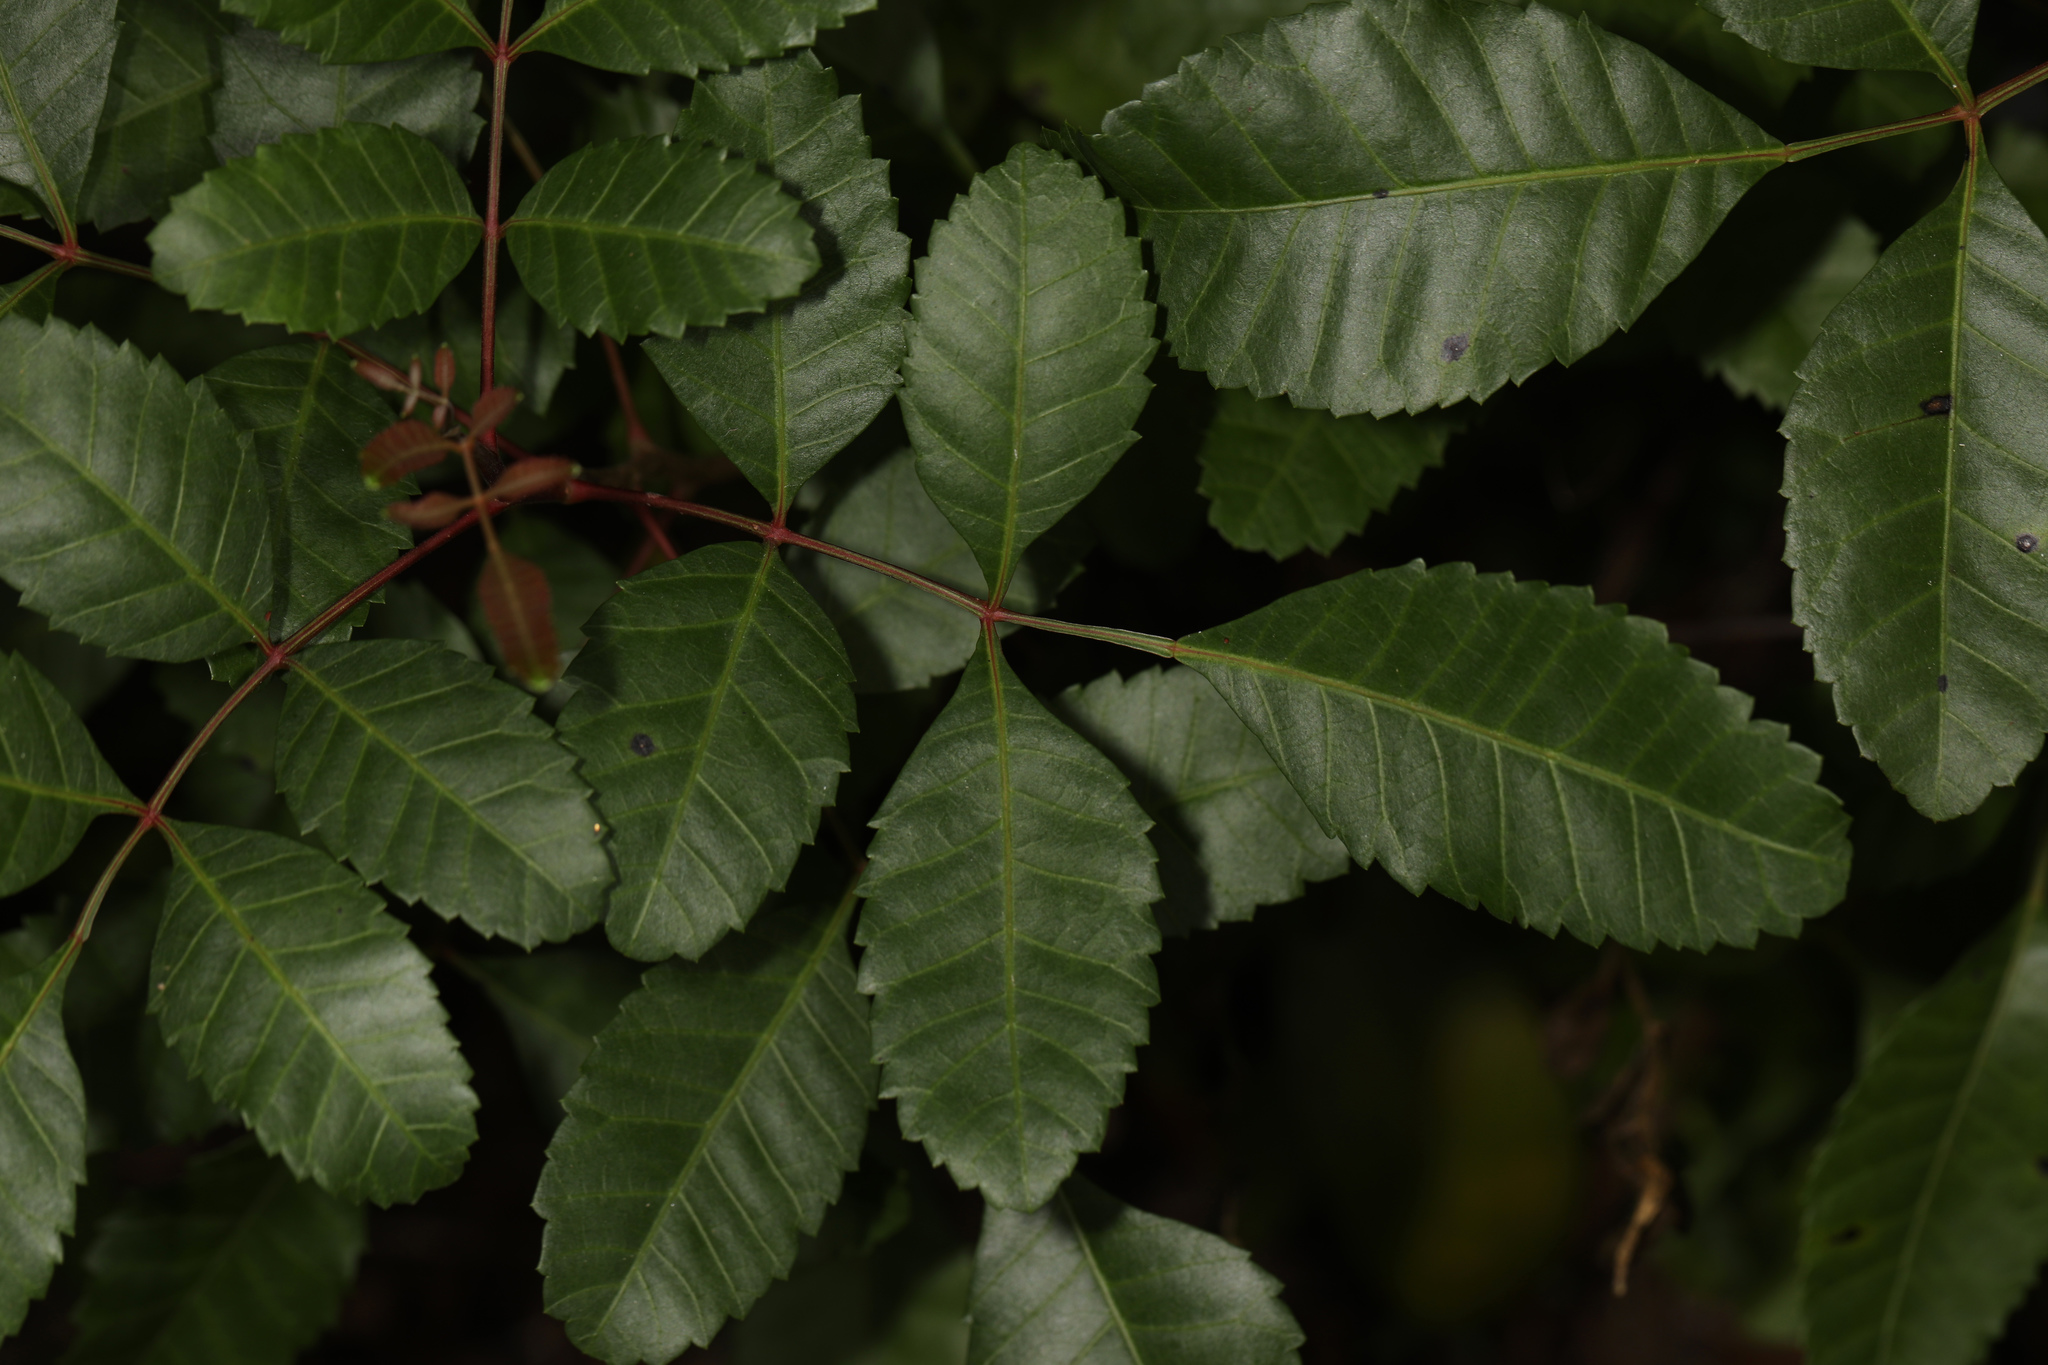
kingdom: Plantae
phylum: Tracheophyta
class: Magnoliopsida
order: Sapindales
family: Anacardiaceae
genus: Schinus
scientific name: Schinus terebinthifolia
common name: Brazilian peppertree
